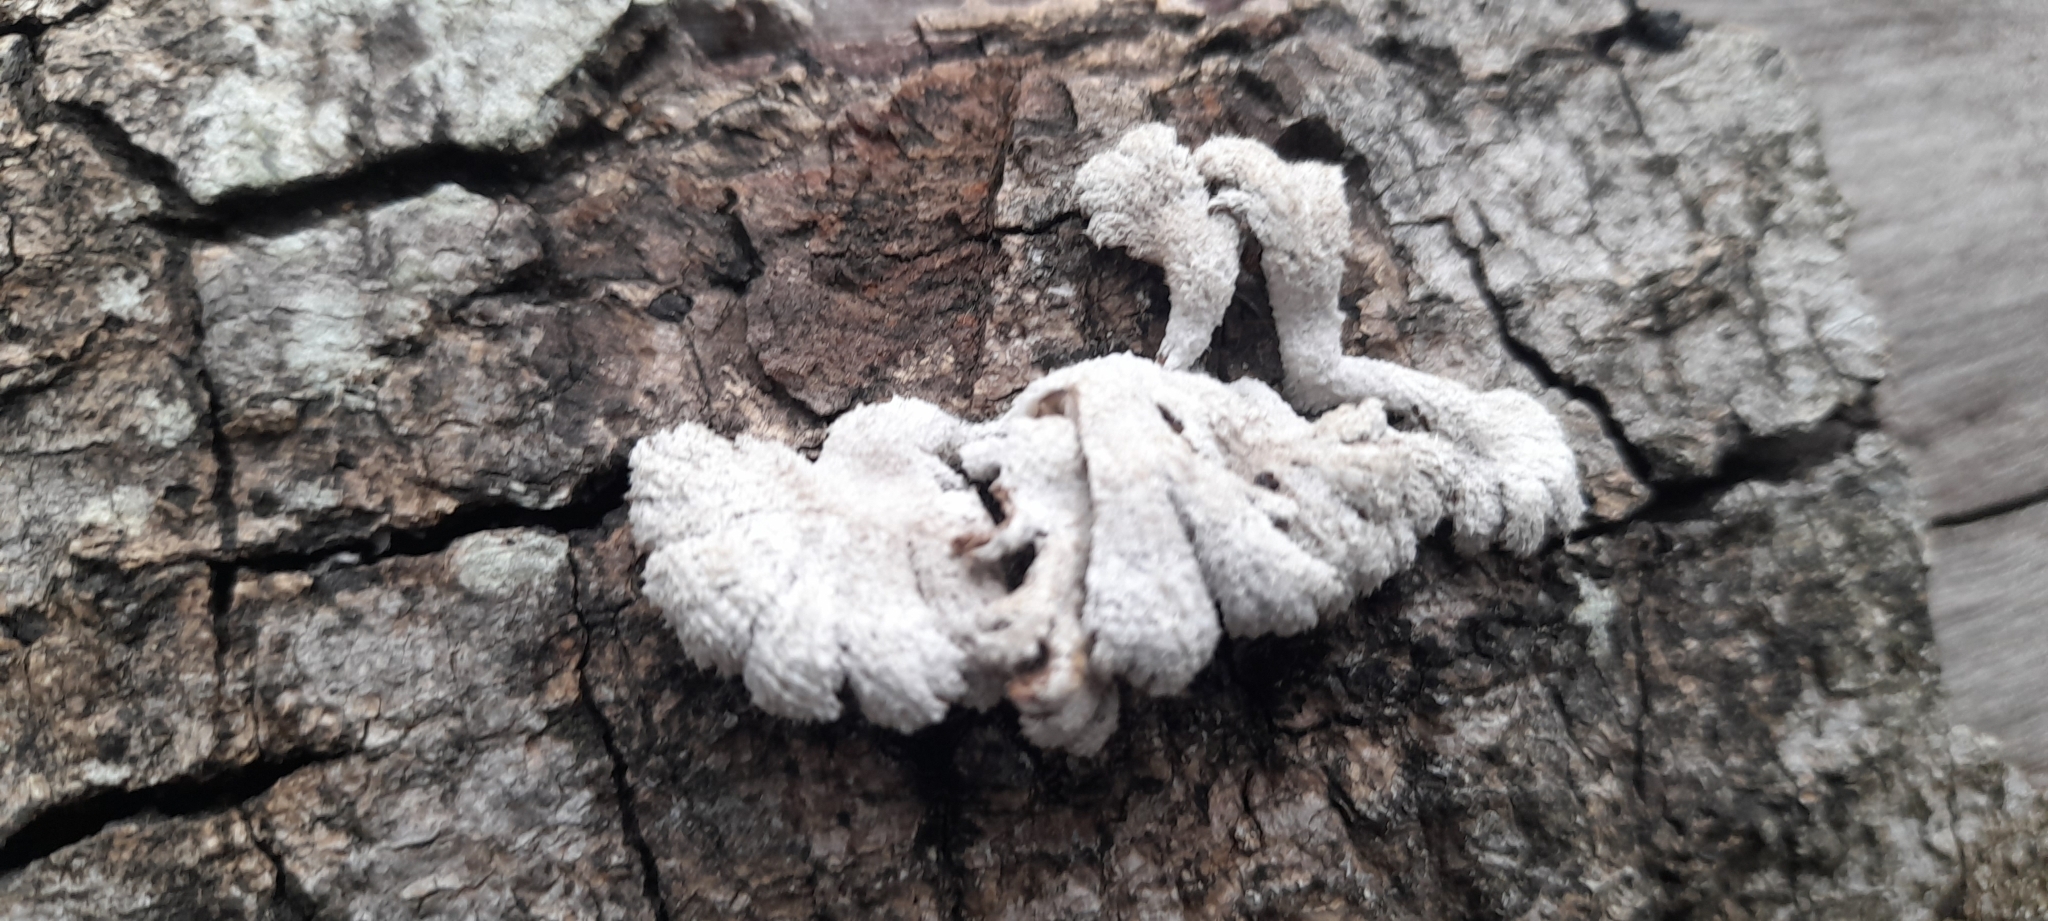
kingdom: Fungi
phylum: Basidiomycota
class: Agaricomycetes
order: Agaricales
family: Schizophyllaceae
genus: Schizophyllum
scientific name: Schizophyllum commune
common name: Common porecrust
